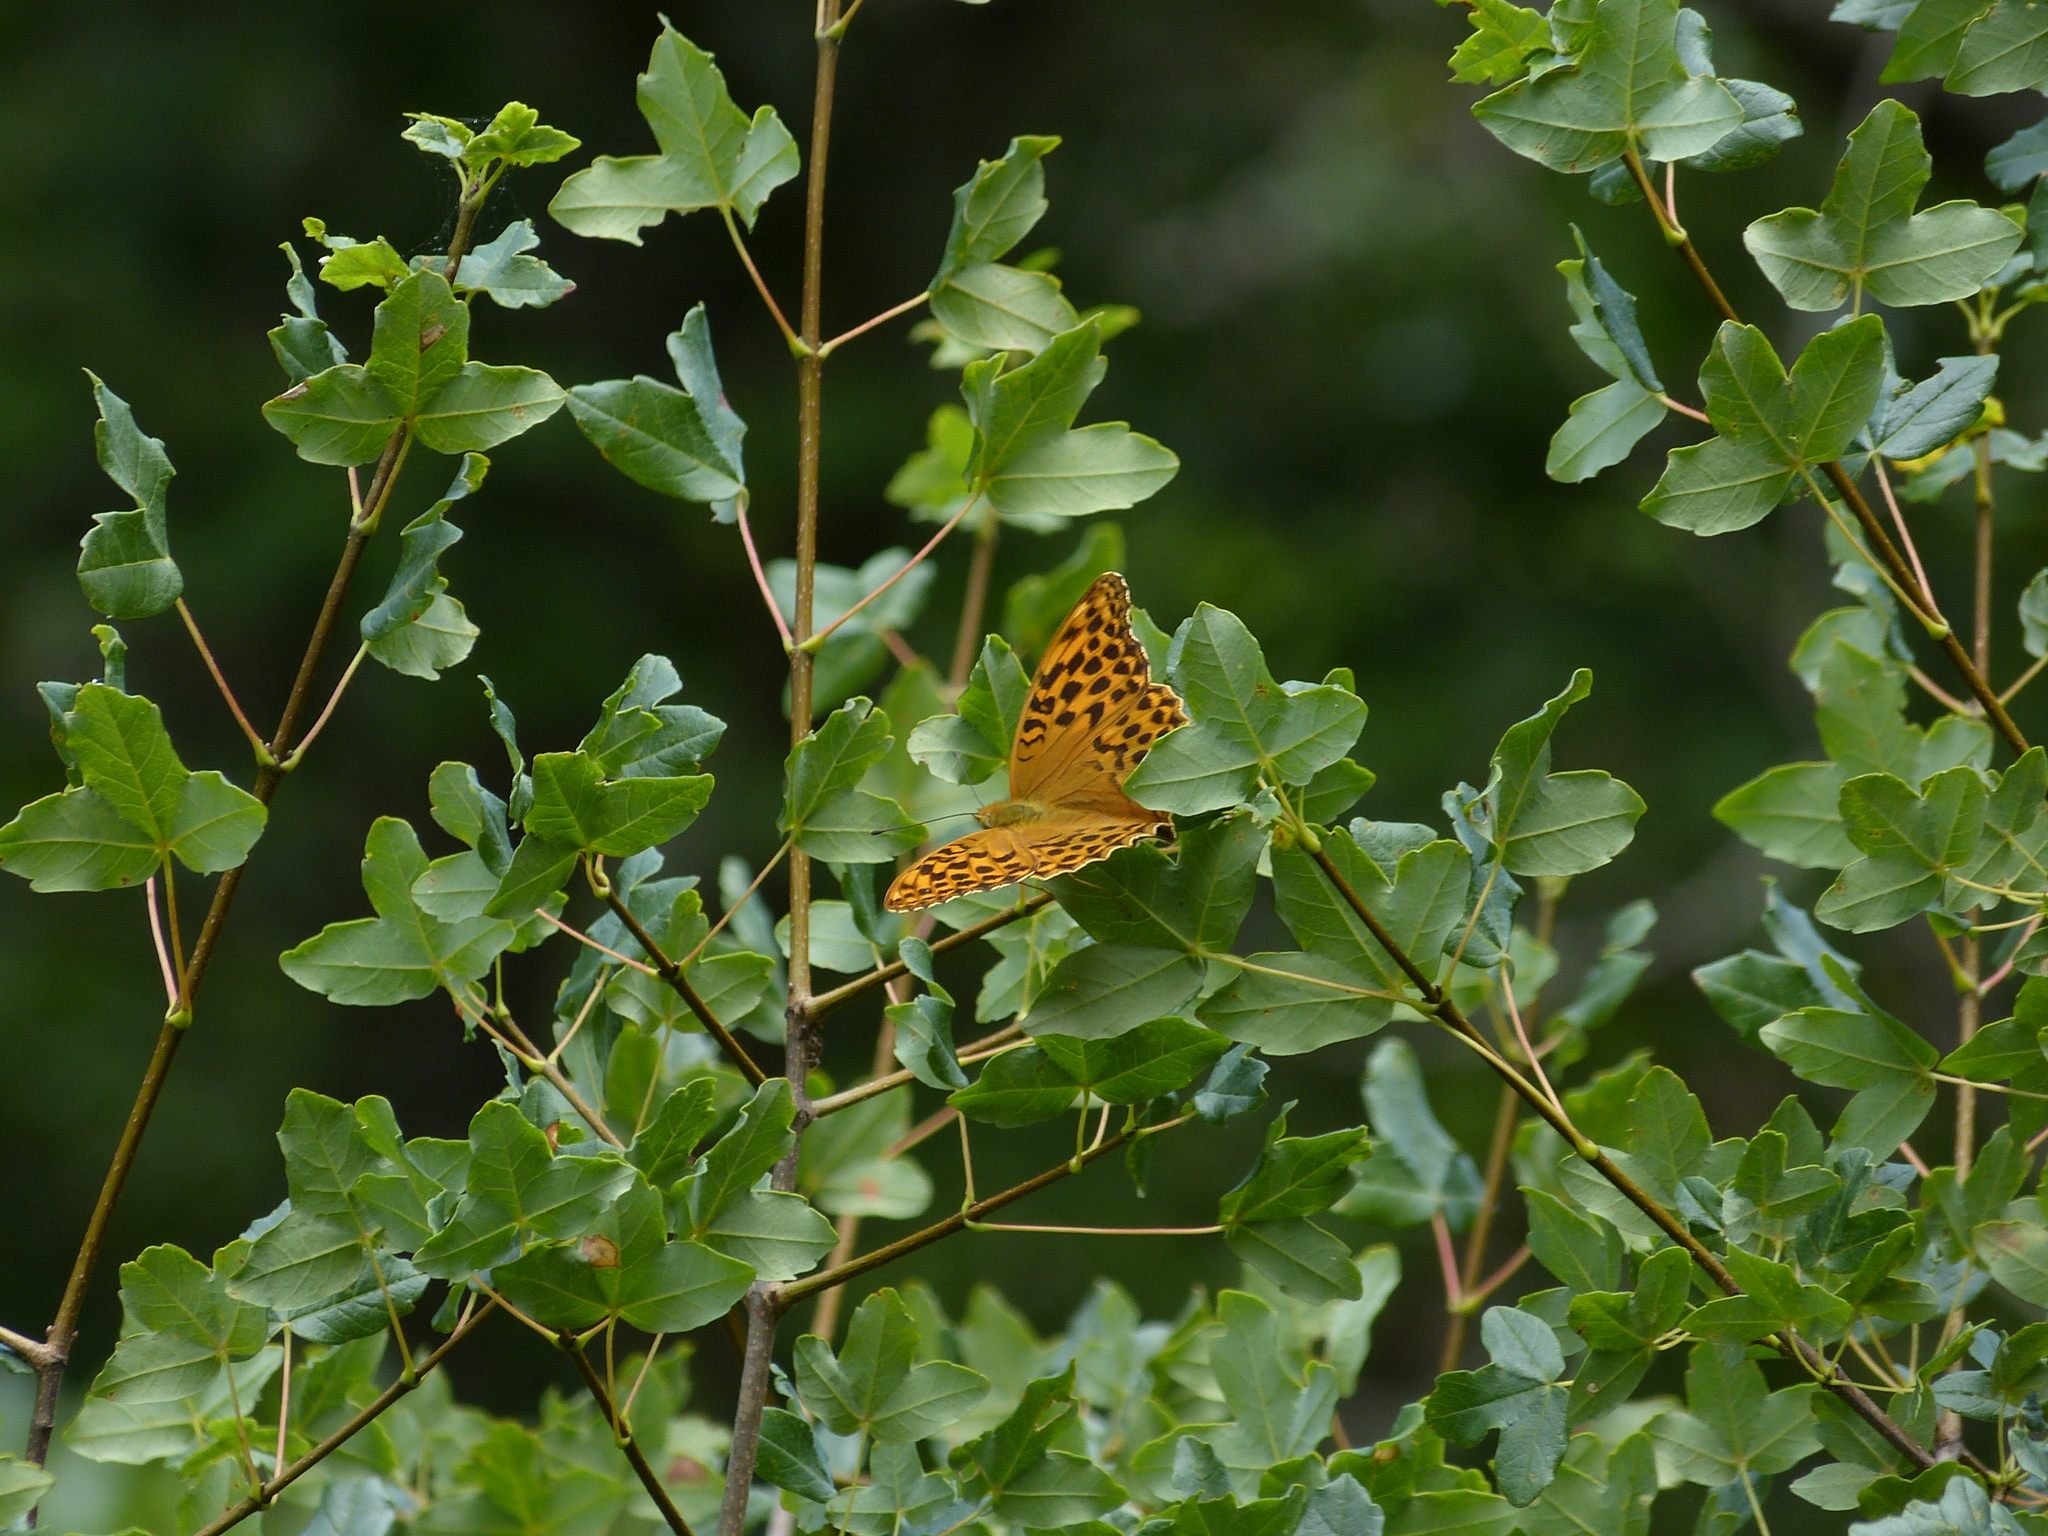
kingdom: Animalia
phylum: Arthropoda
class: Insecta
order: Lepidoptera
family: Nymphalidae
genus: Argynnis
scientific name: Argynnis paphia
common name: Silver-washed fritillary
